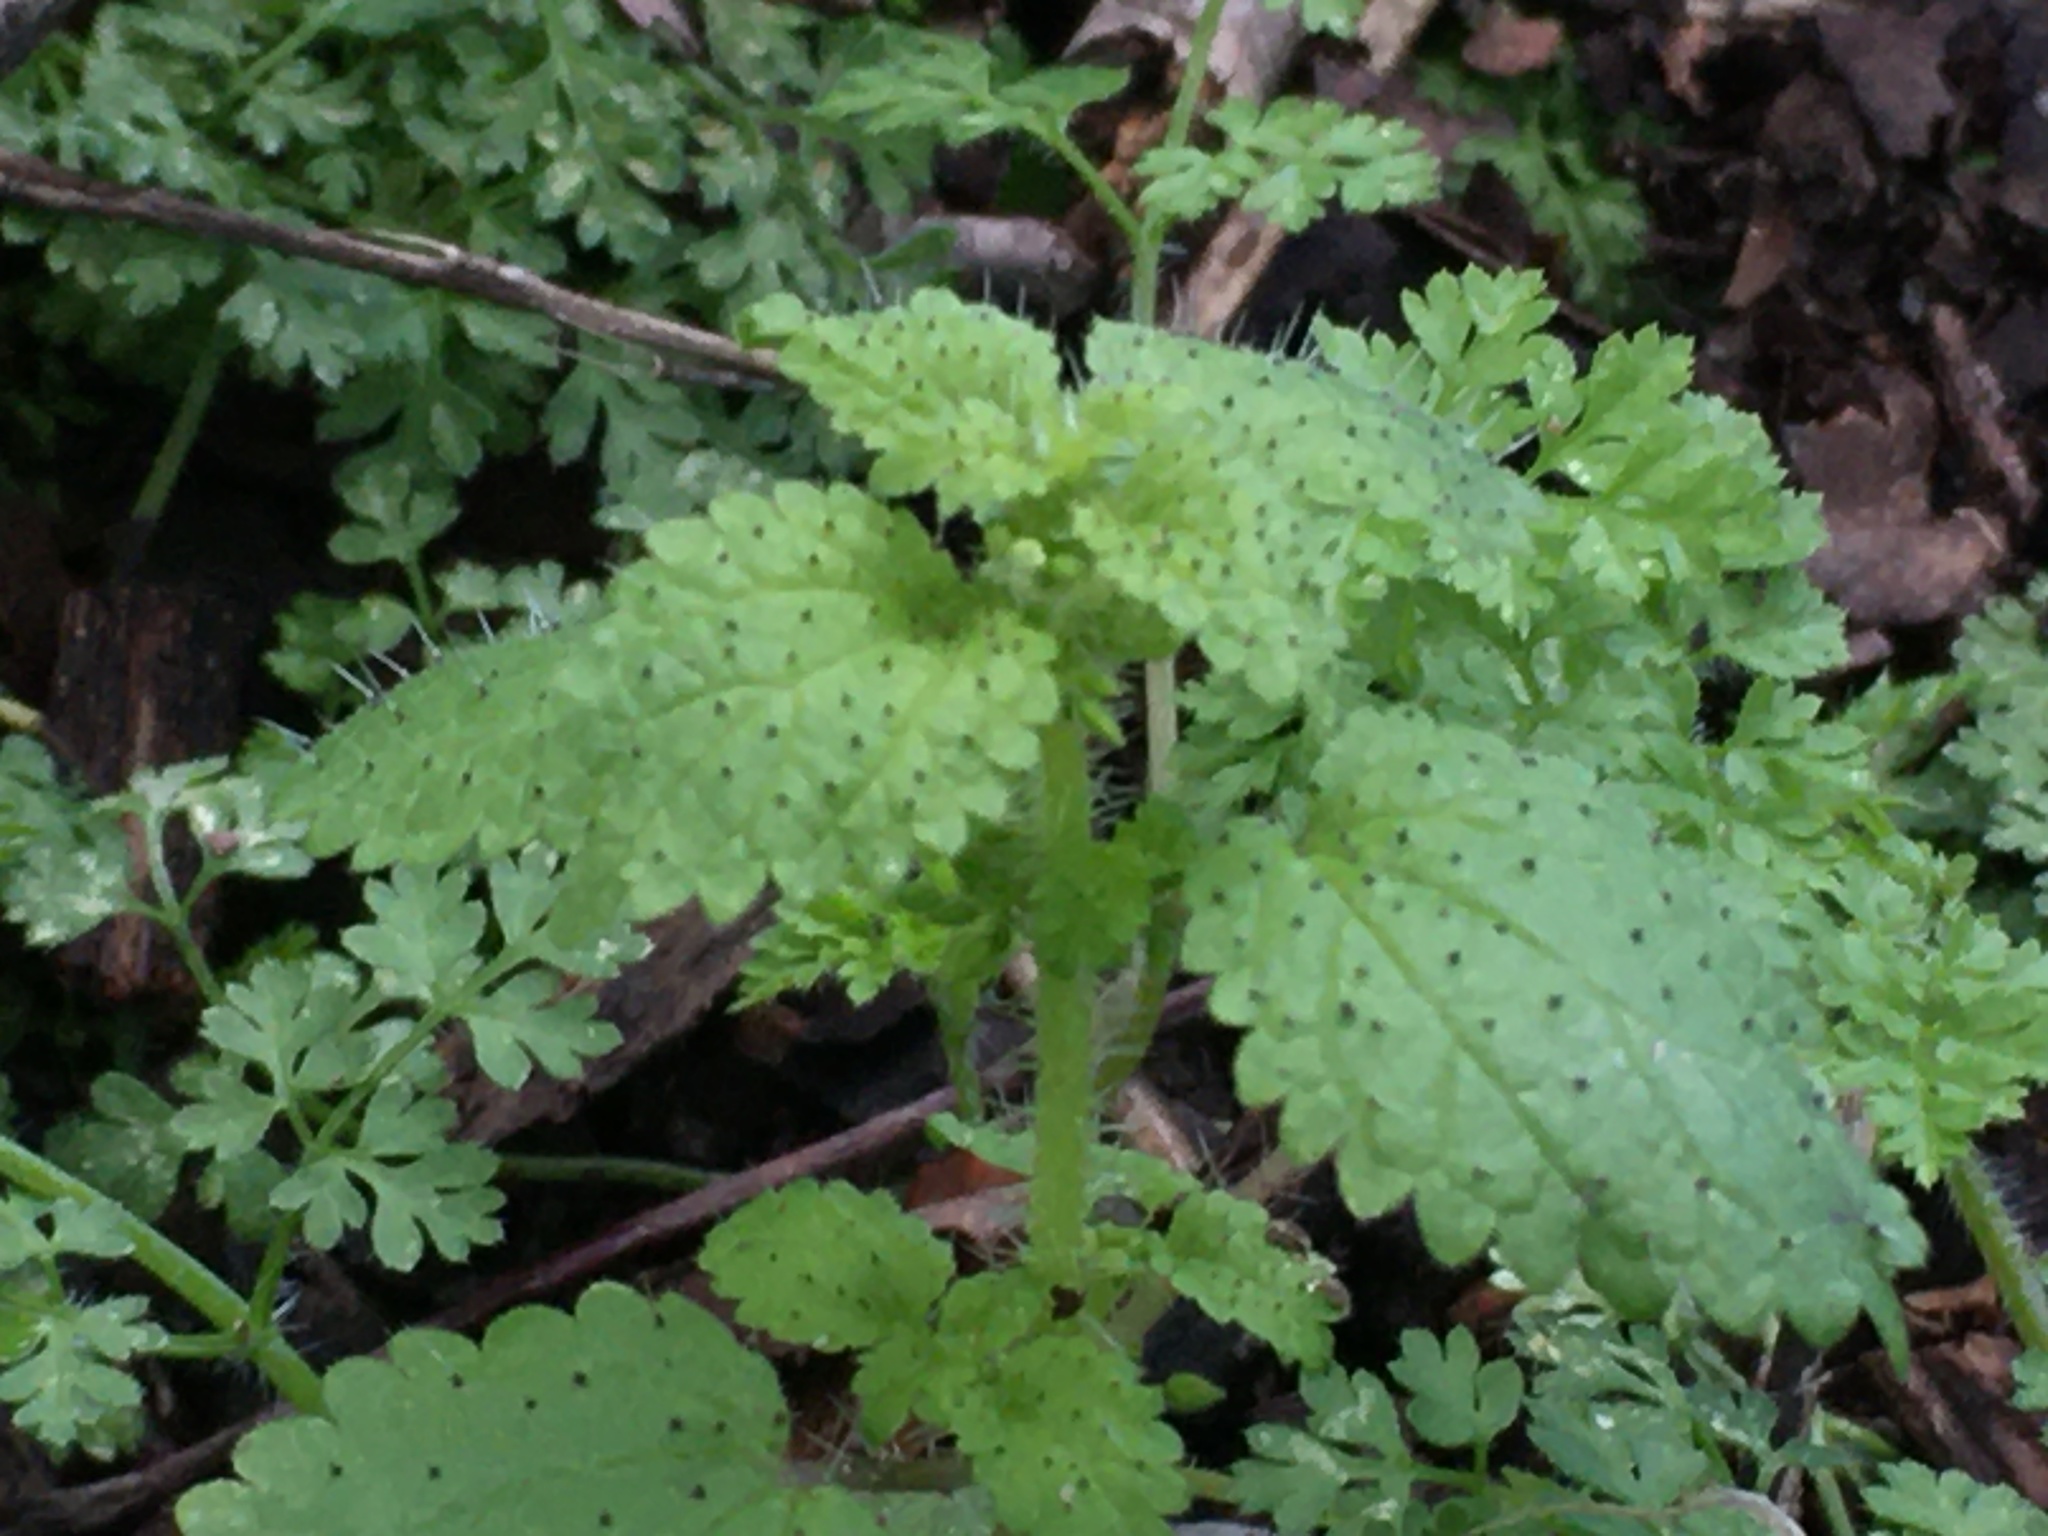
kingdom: Plantae
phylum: Tracheophyta
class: Magnoliopsida
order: Rosales
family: Urticaceae
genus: Urtica
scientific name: Urtica urens
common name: Dwarf nettle
